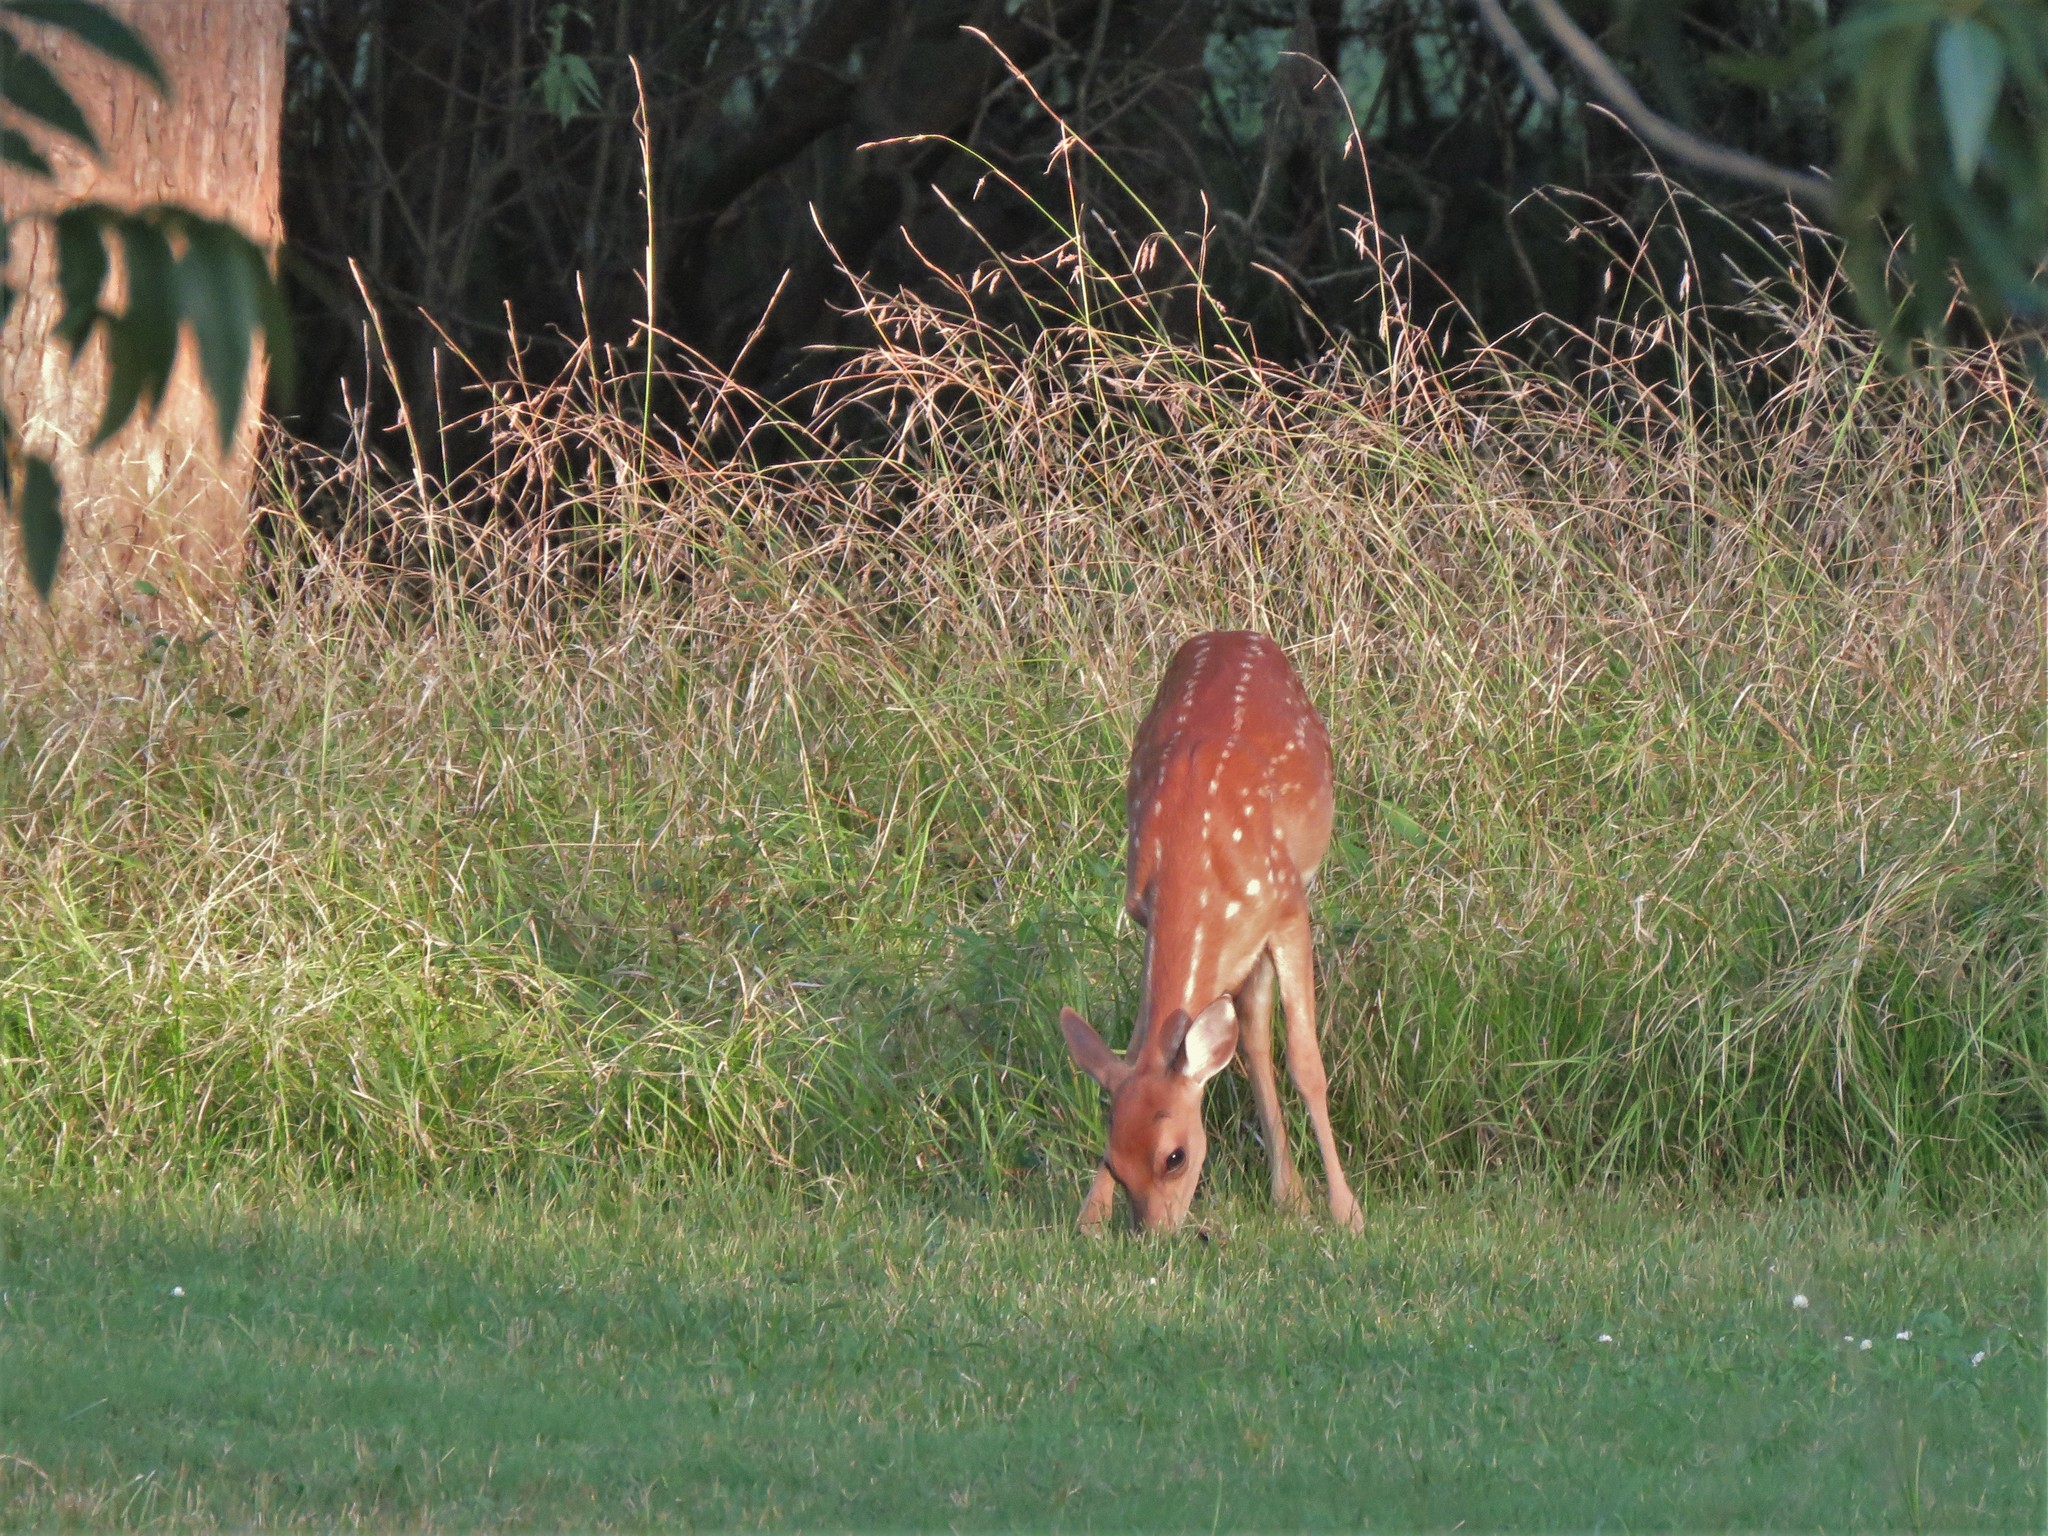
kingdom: Animalia
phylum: Chordata
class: Mammalia
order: Artiodactyla
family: Cervidae
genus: Odocoileus
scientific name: Odocoileus virginianus
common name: White-tailed deer
